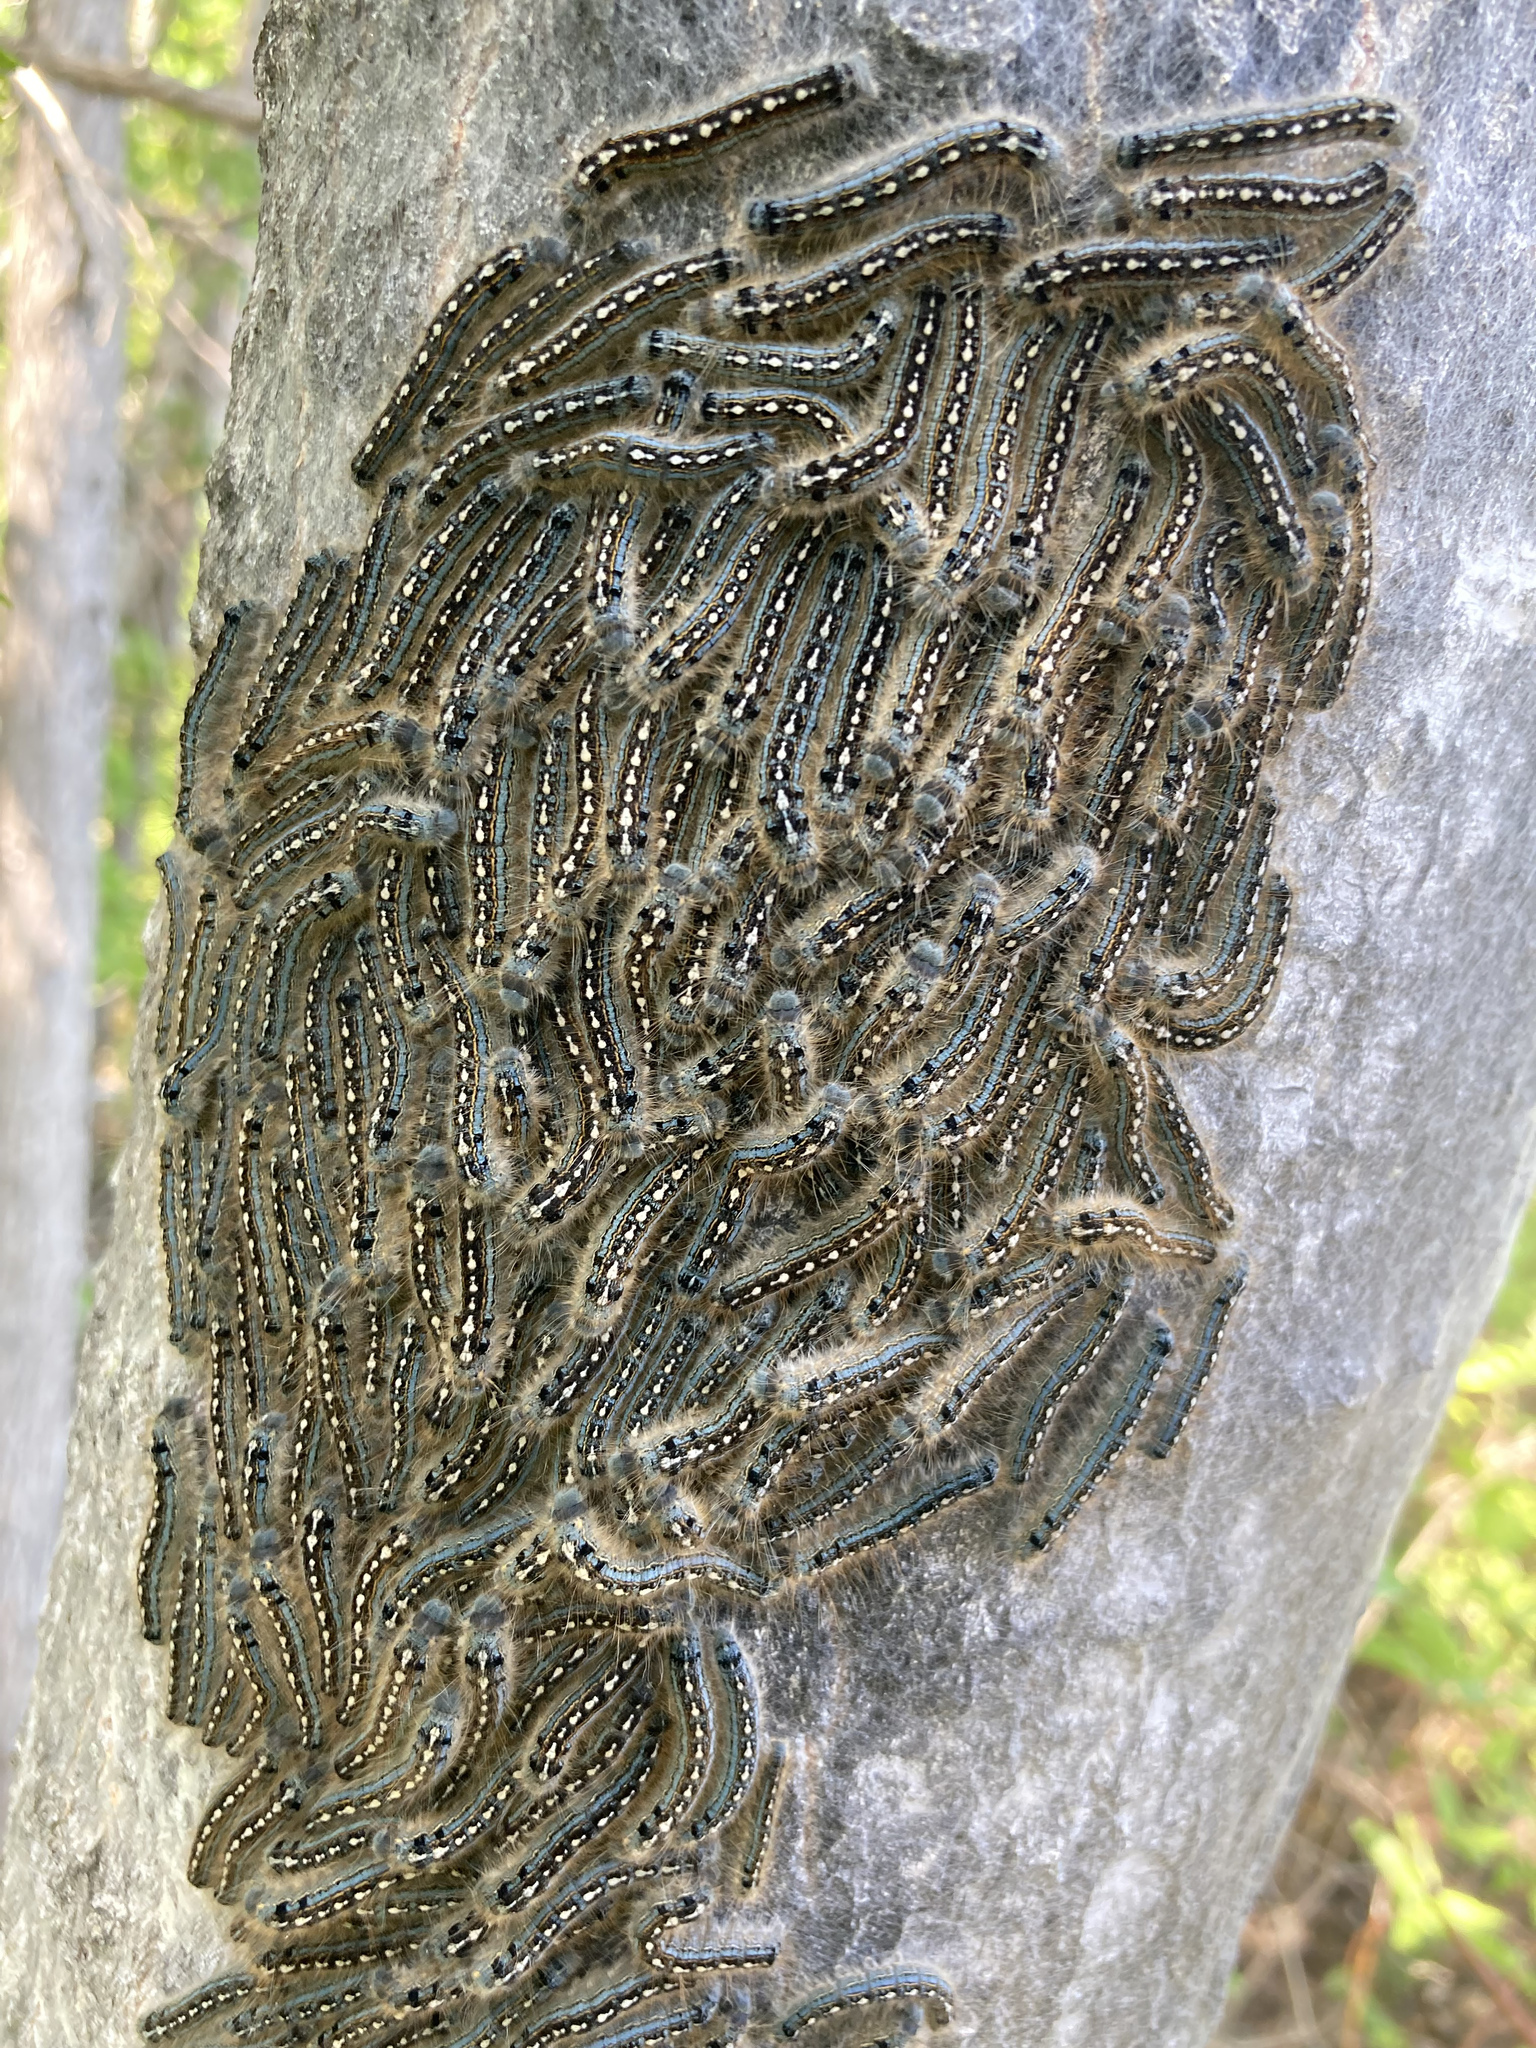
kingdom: Animalia
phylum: Arthropoda
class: Insecta
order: Lepidoptera
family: Lasiocampidae
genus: Malacosoma
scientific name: Malacosoma disstria
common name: Forest tent caterpillar
